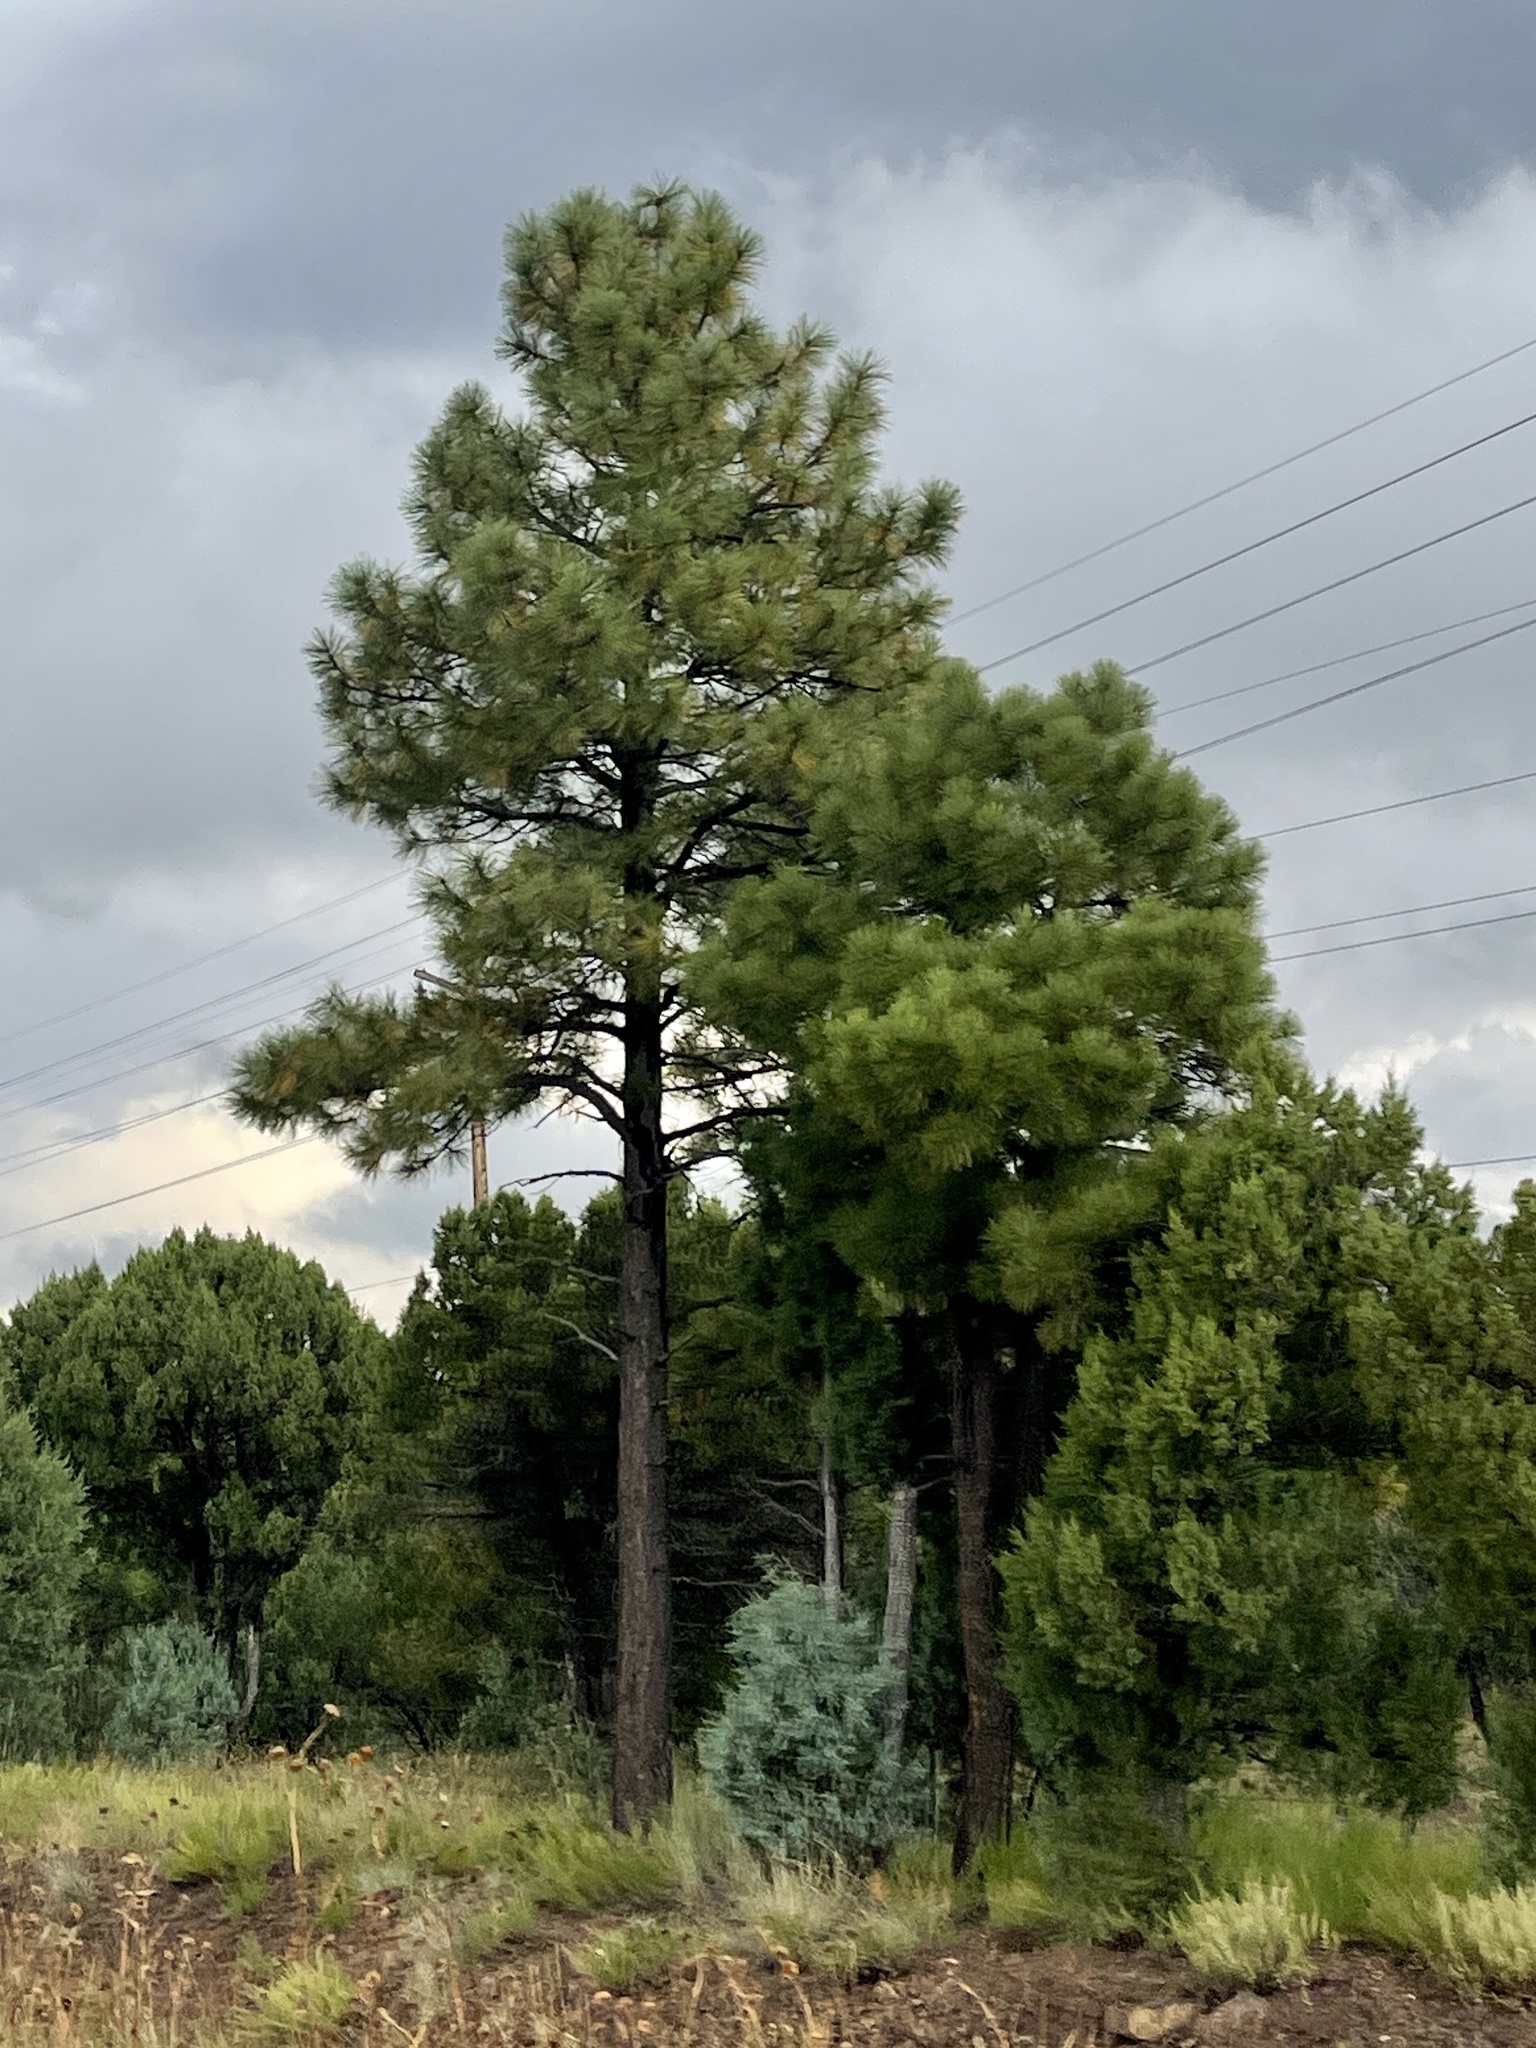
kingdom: Plantae
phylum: Tracheophyta
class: Pinopsida
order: Pinales
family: Pinaceae
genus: Pinus
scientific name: Pinus ponderosa
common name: Western yellow-pine
